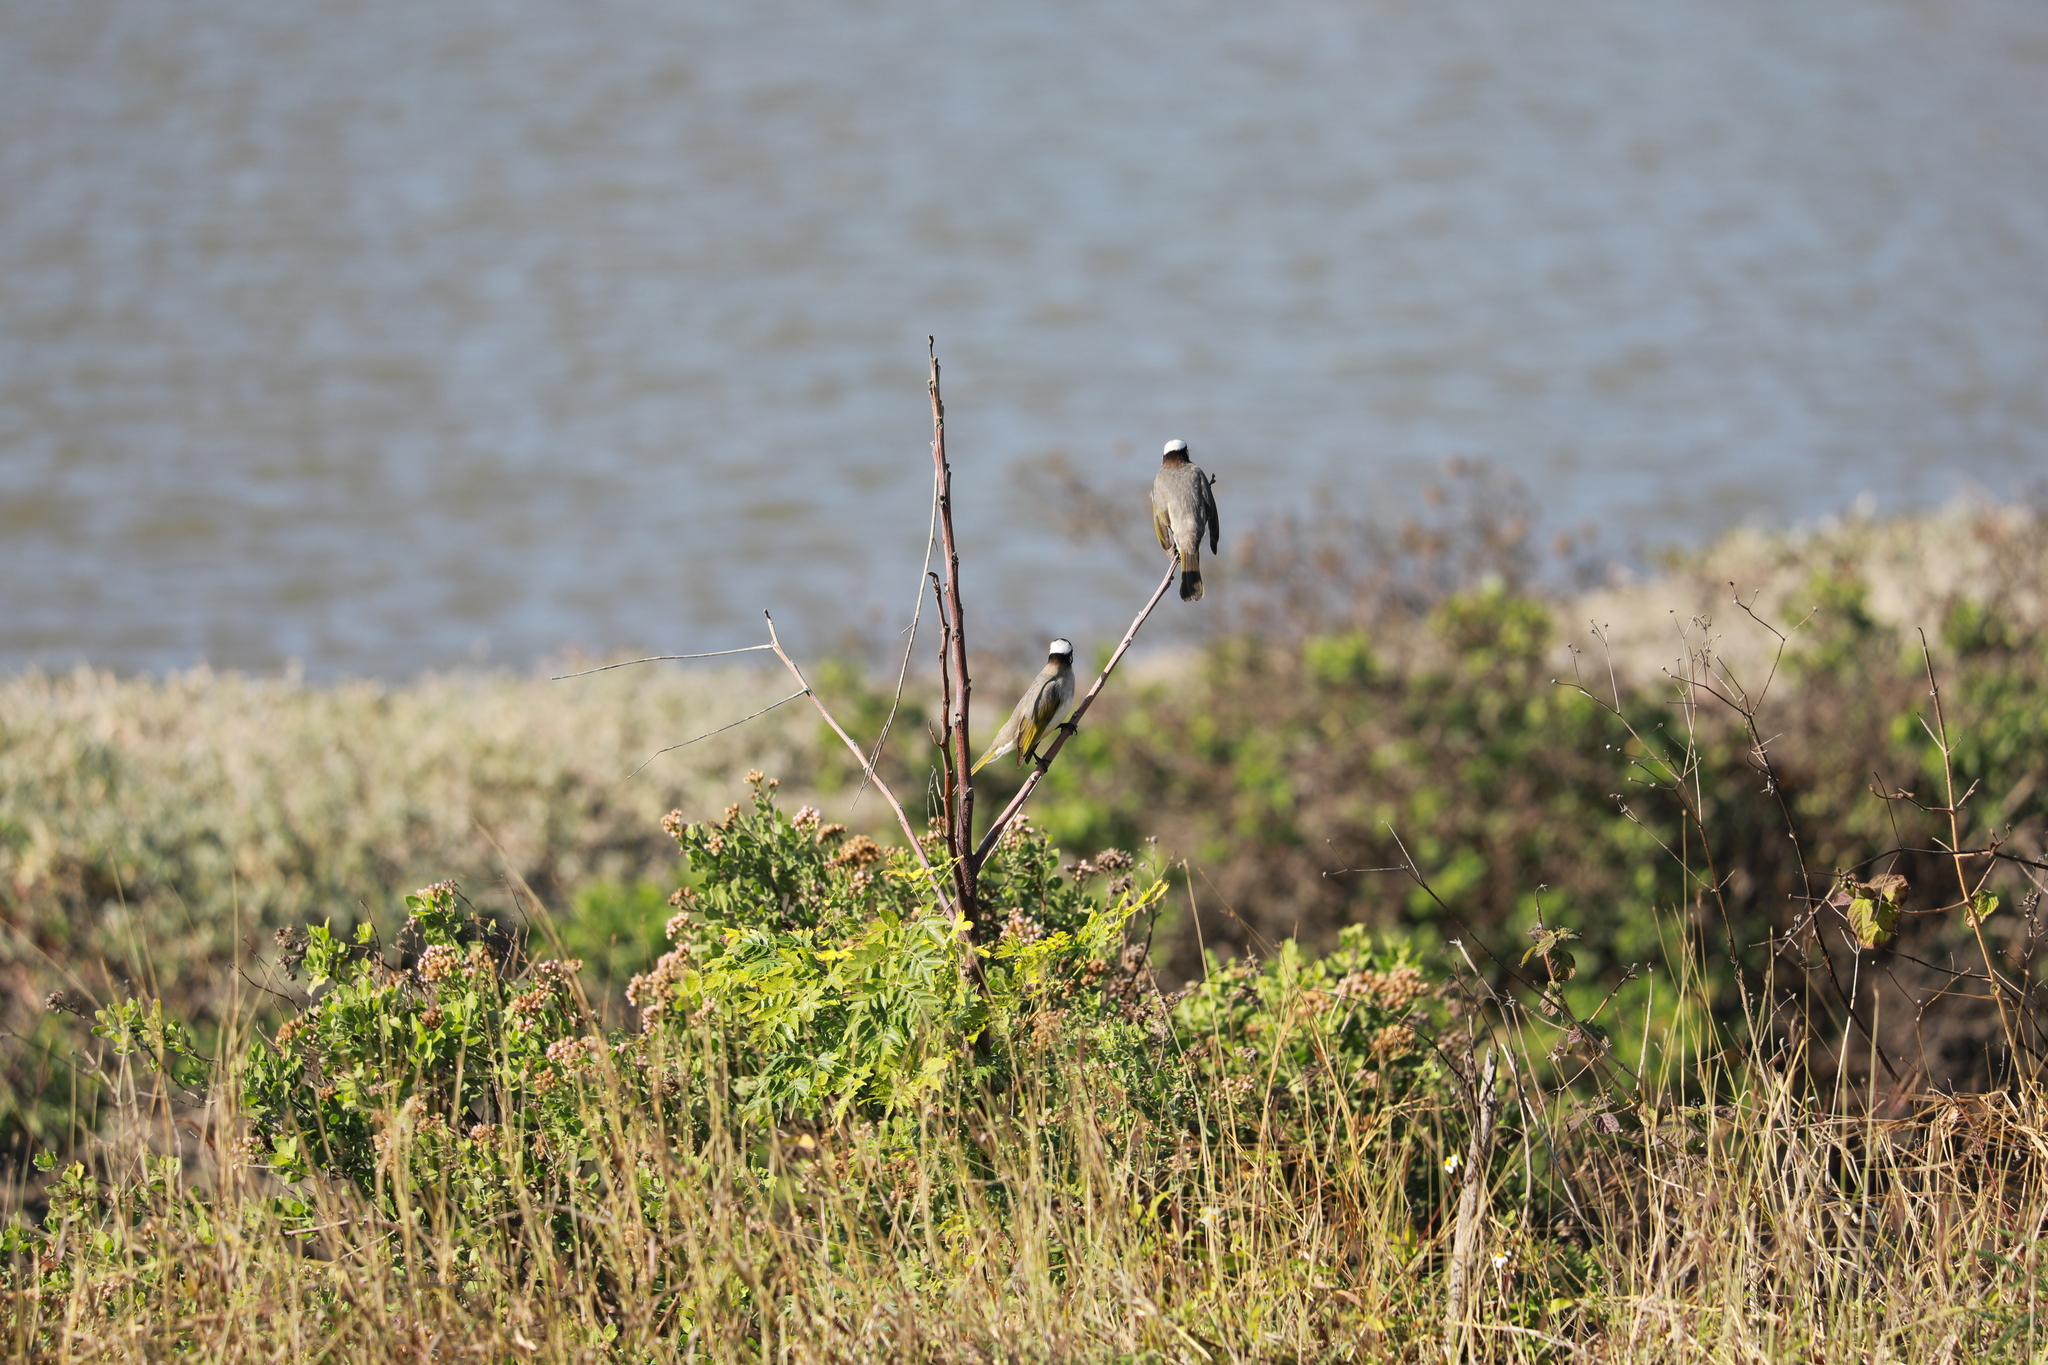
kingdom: Animalia
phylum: Chordata
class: Aves
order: Passeriformes
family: Pycnonotidae
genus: Pycnonotus
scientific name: Pycnonotus sinensis
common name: Light-vented bulbul
